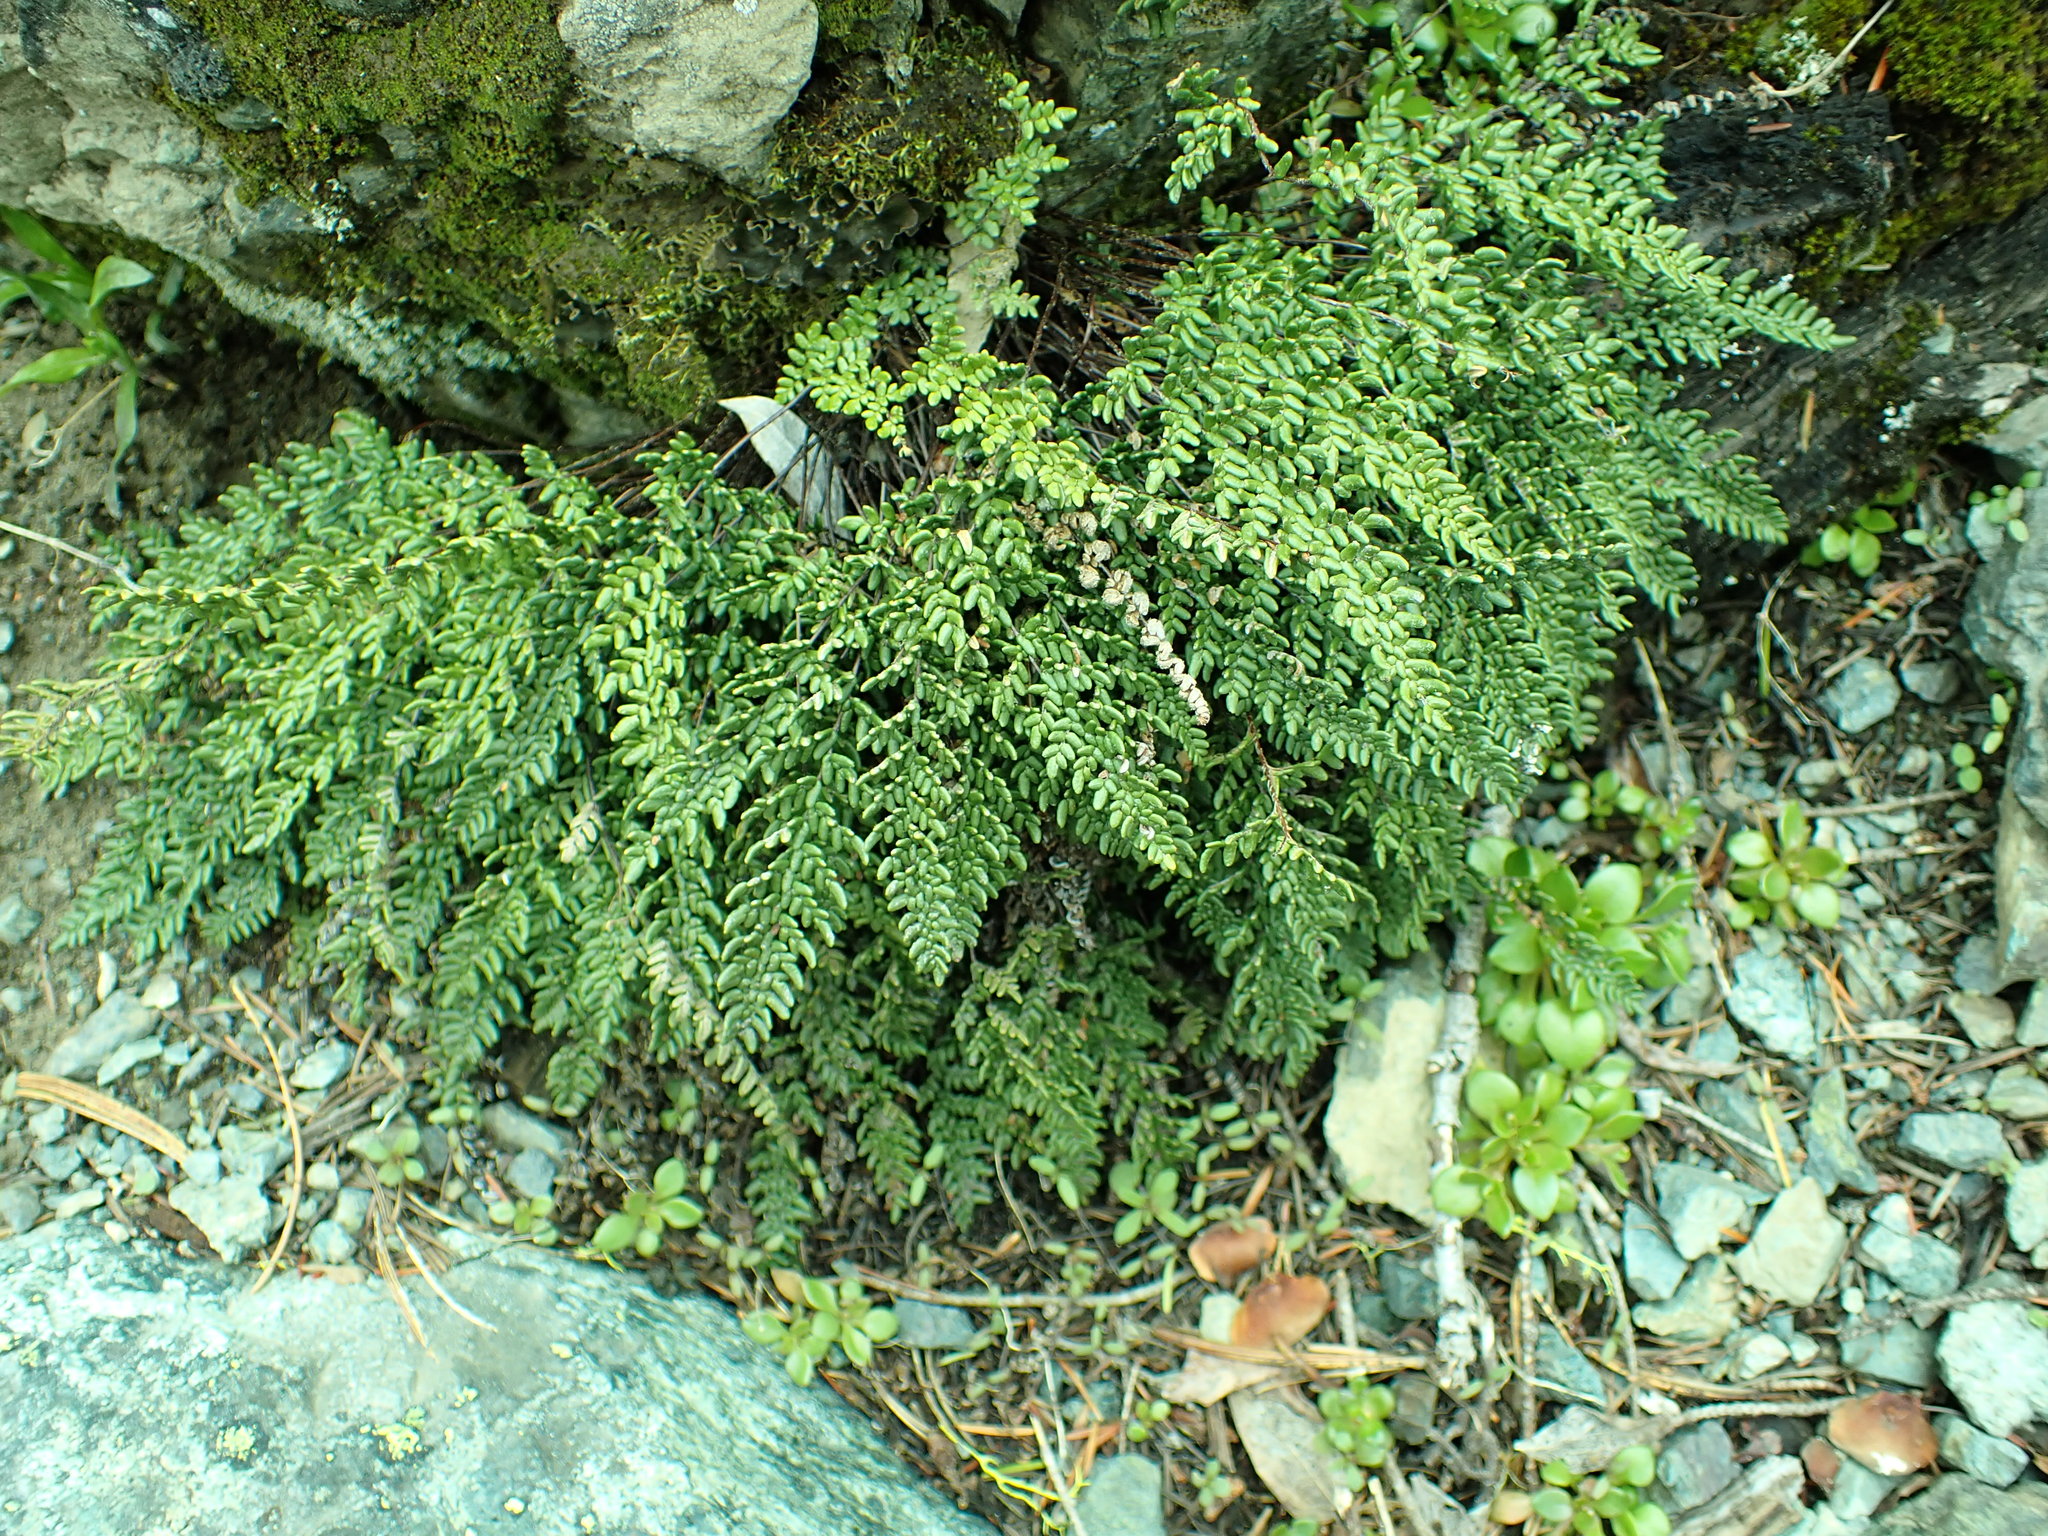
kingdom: Plantae
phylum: Tracheophyta
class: Polypodiopsida
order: Polypodiales
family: Pteridaceae
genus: Myriopteris
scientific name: Myriopteris gracillima
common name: Lace fern
